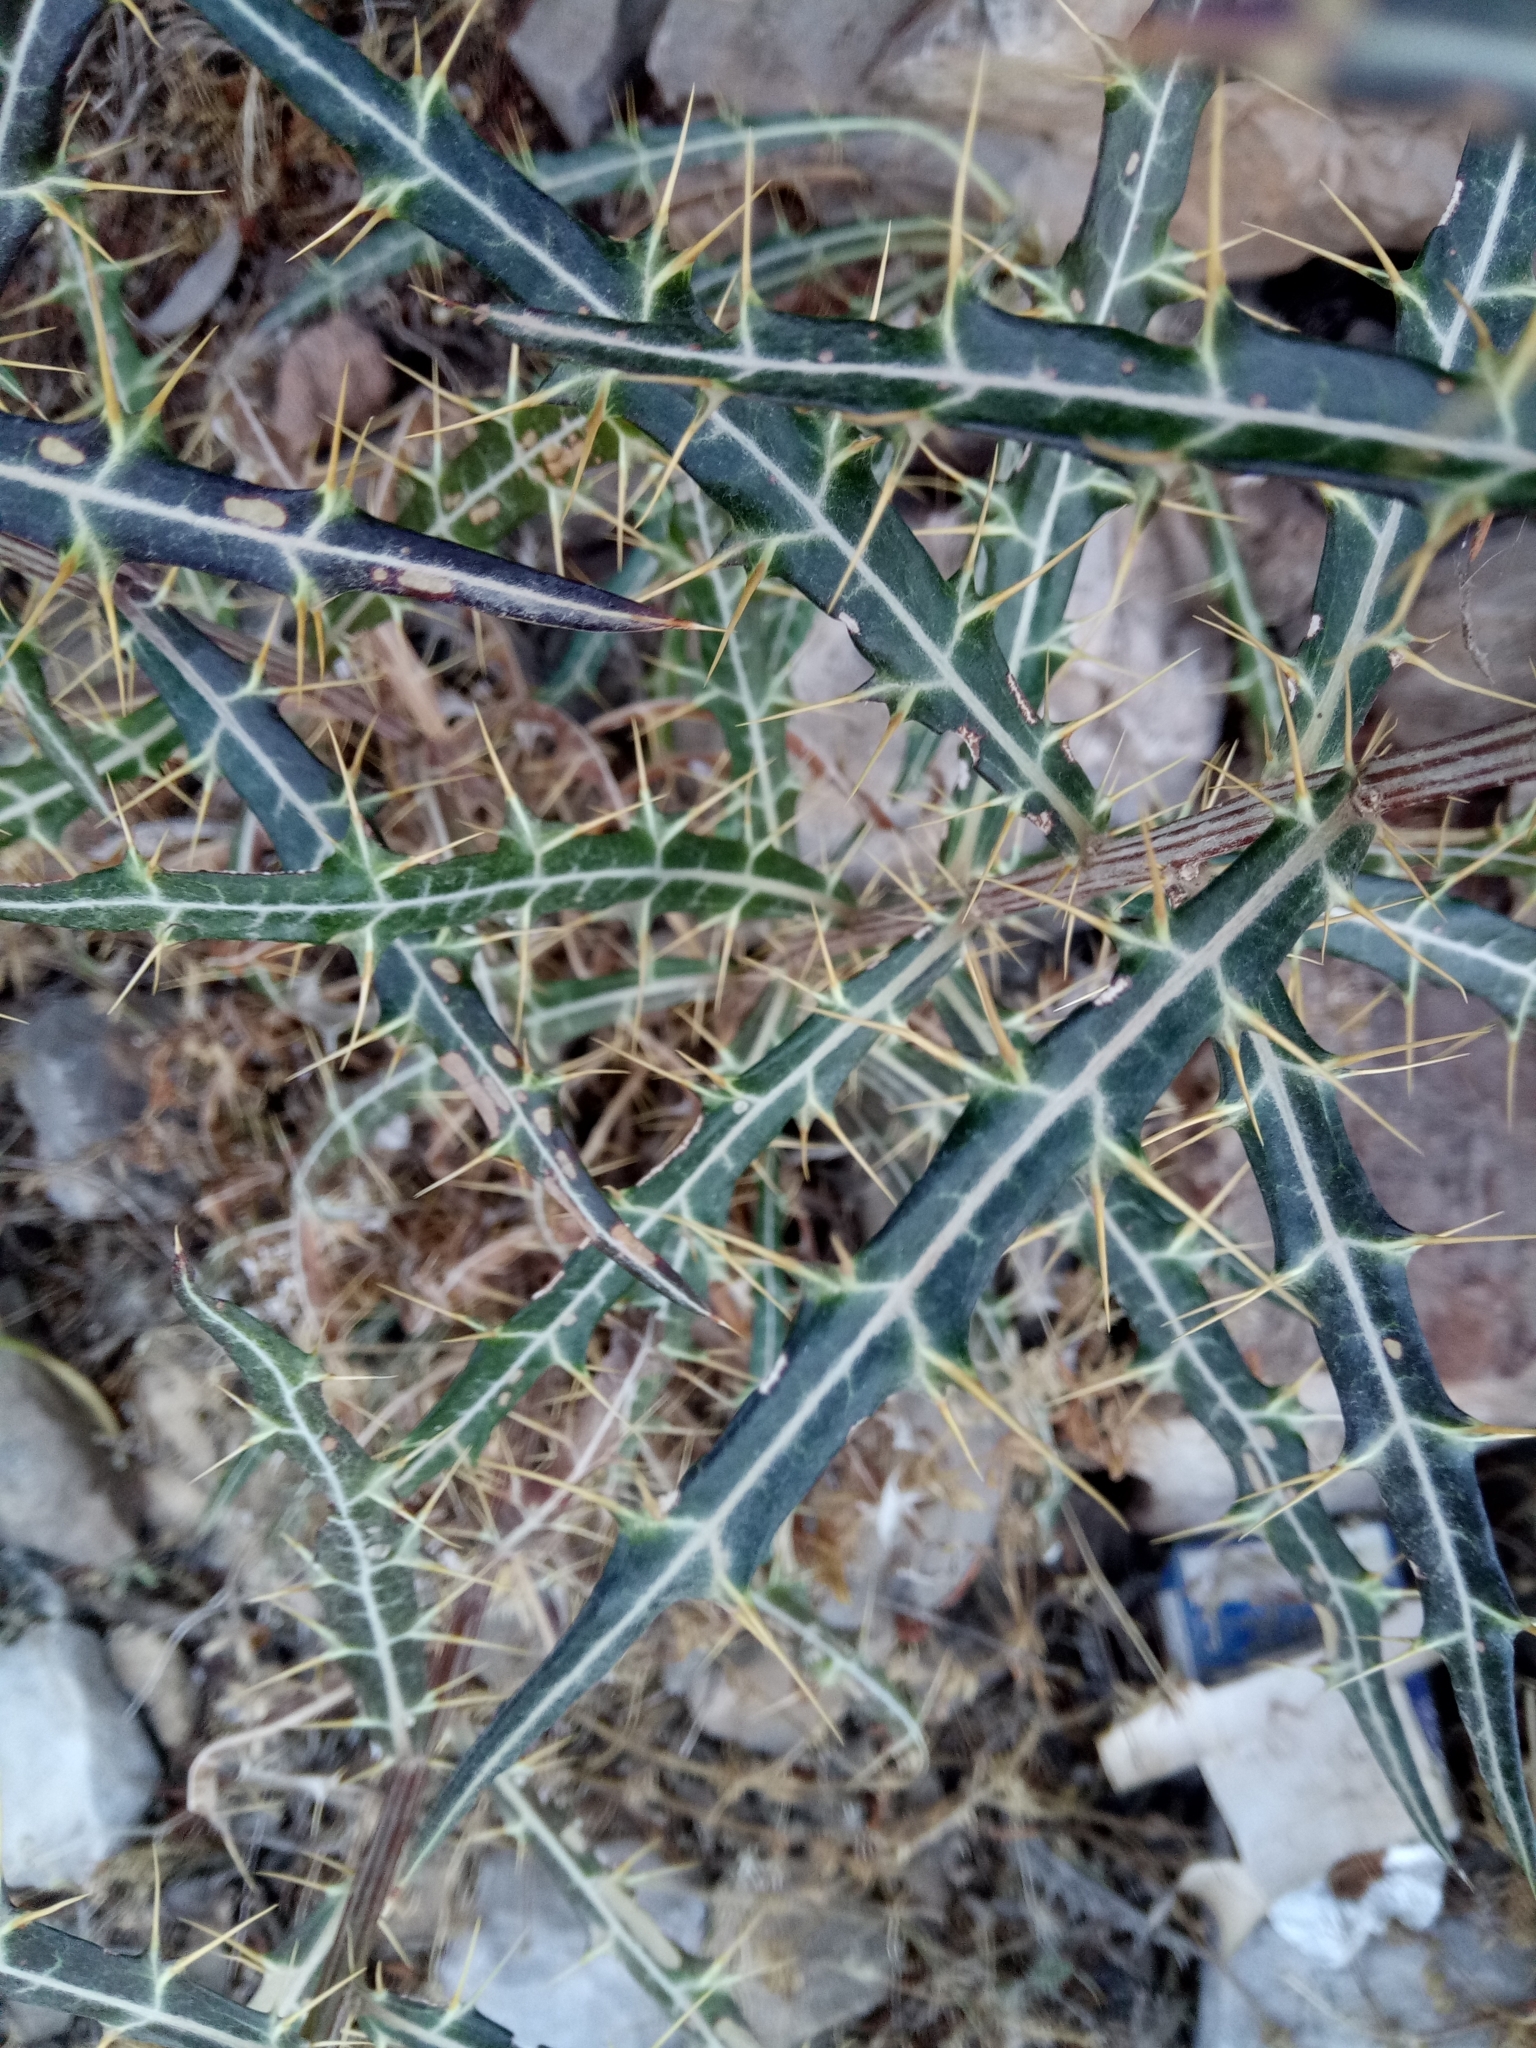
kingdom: Plantae
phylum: Tracheophyta
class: Magnoliopsida
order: Asterales
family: Asteraceae
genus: Ptilostemon
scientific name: Ptilostemon rhiphaeus
